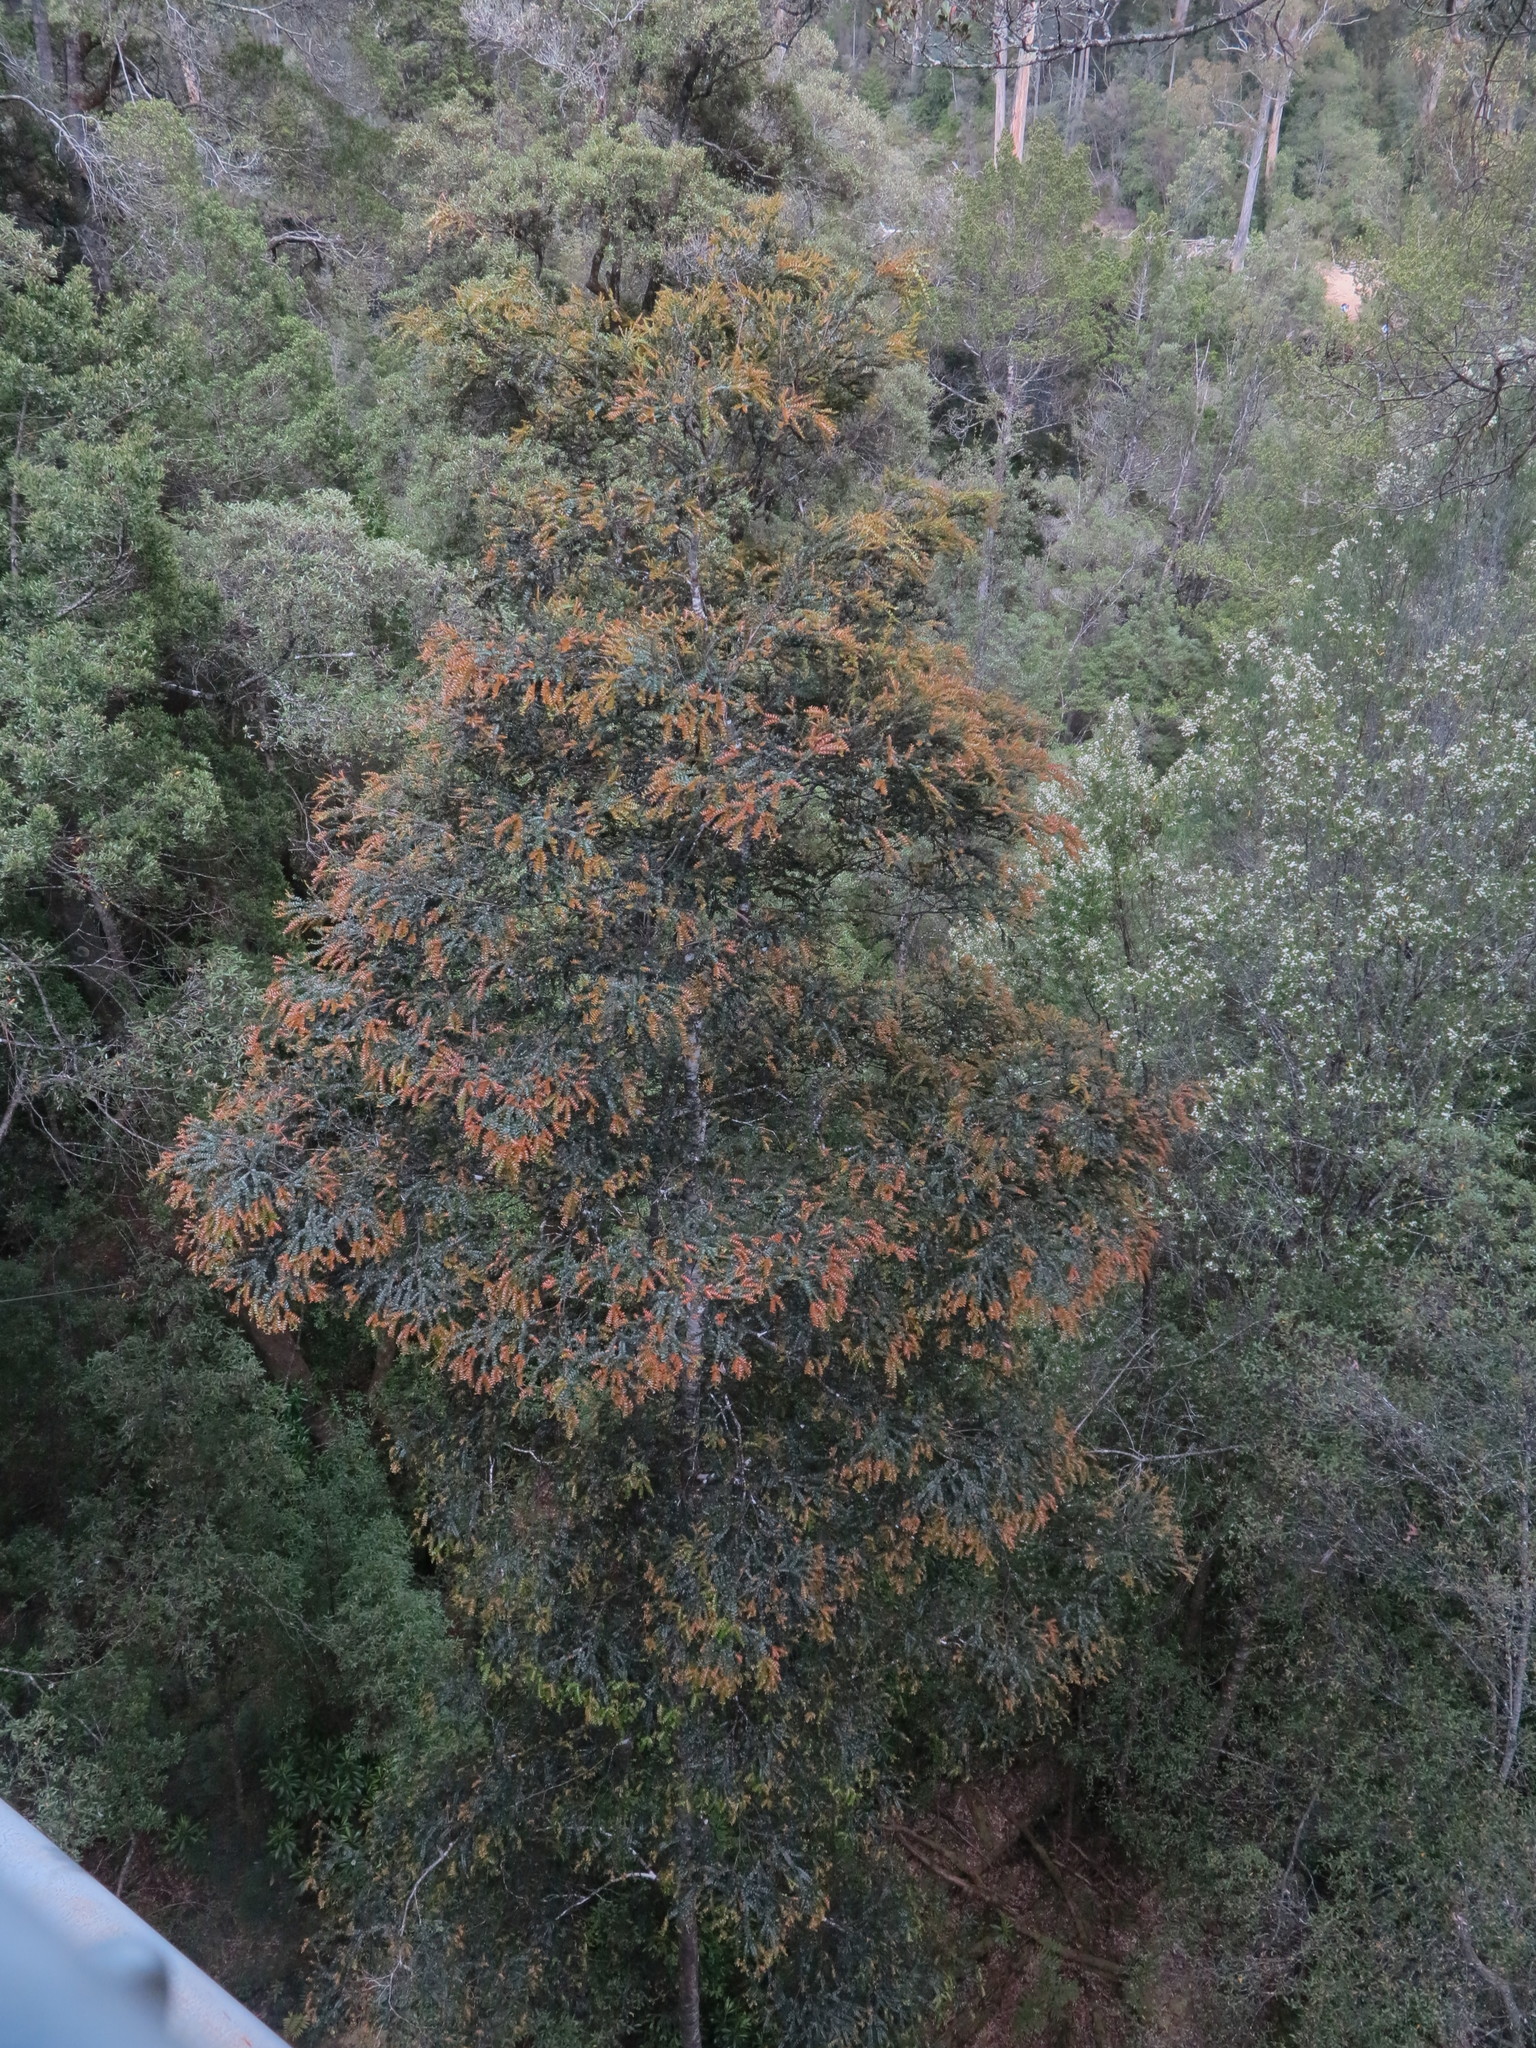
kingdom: Plantae
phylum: Tracheophyta
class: Magnoliopsida
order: Fagales
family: Nothofagaceae
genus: Nothofagus
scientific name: Nothofagus cunninghamii
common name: Myrtle beech
